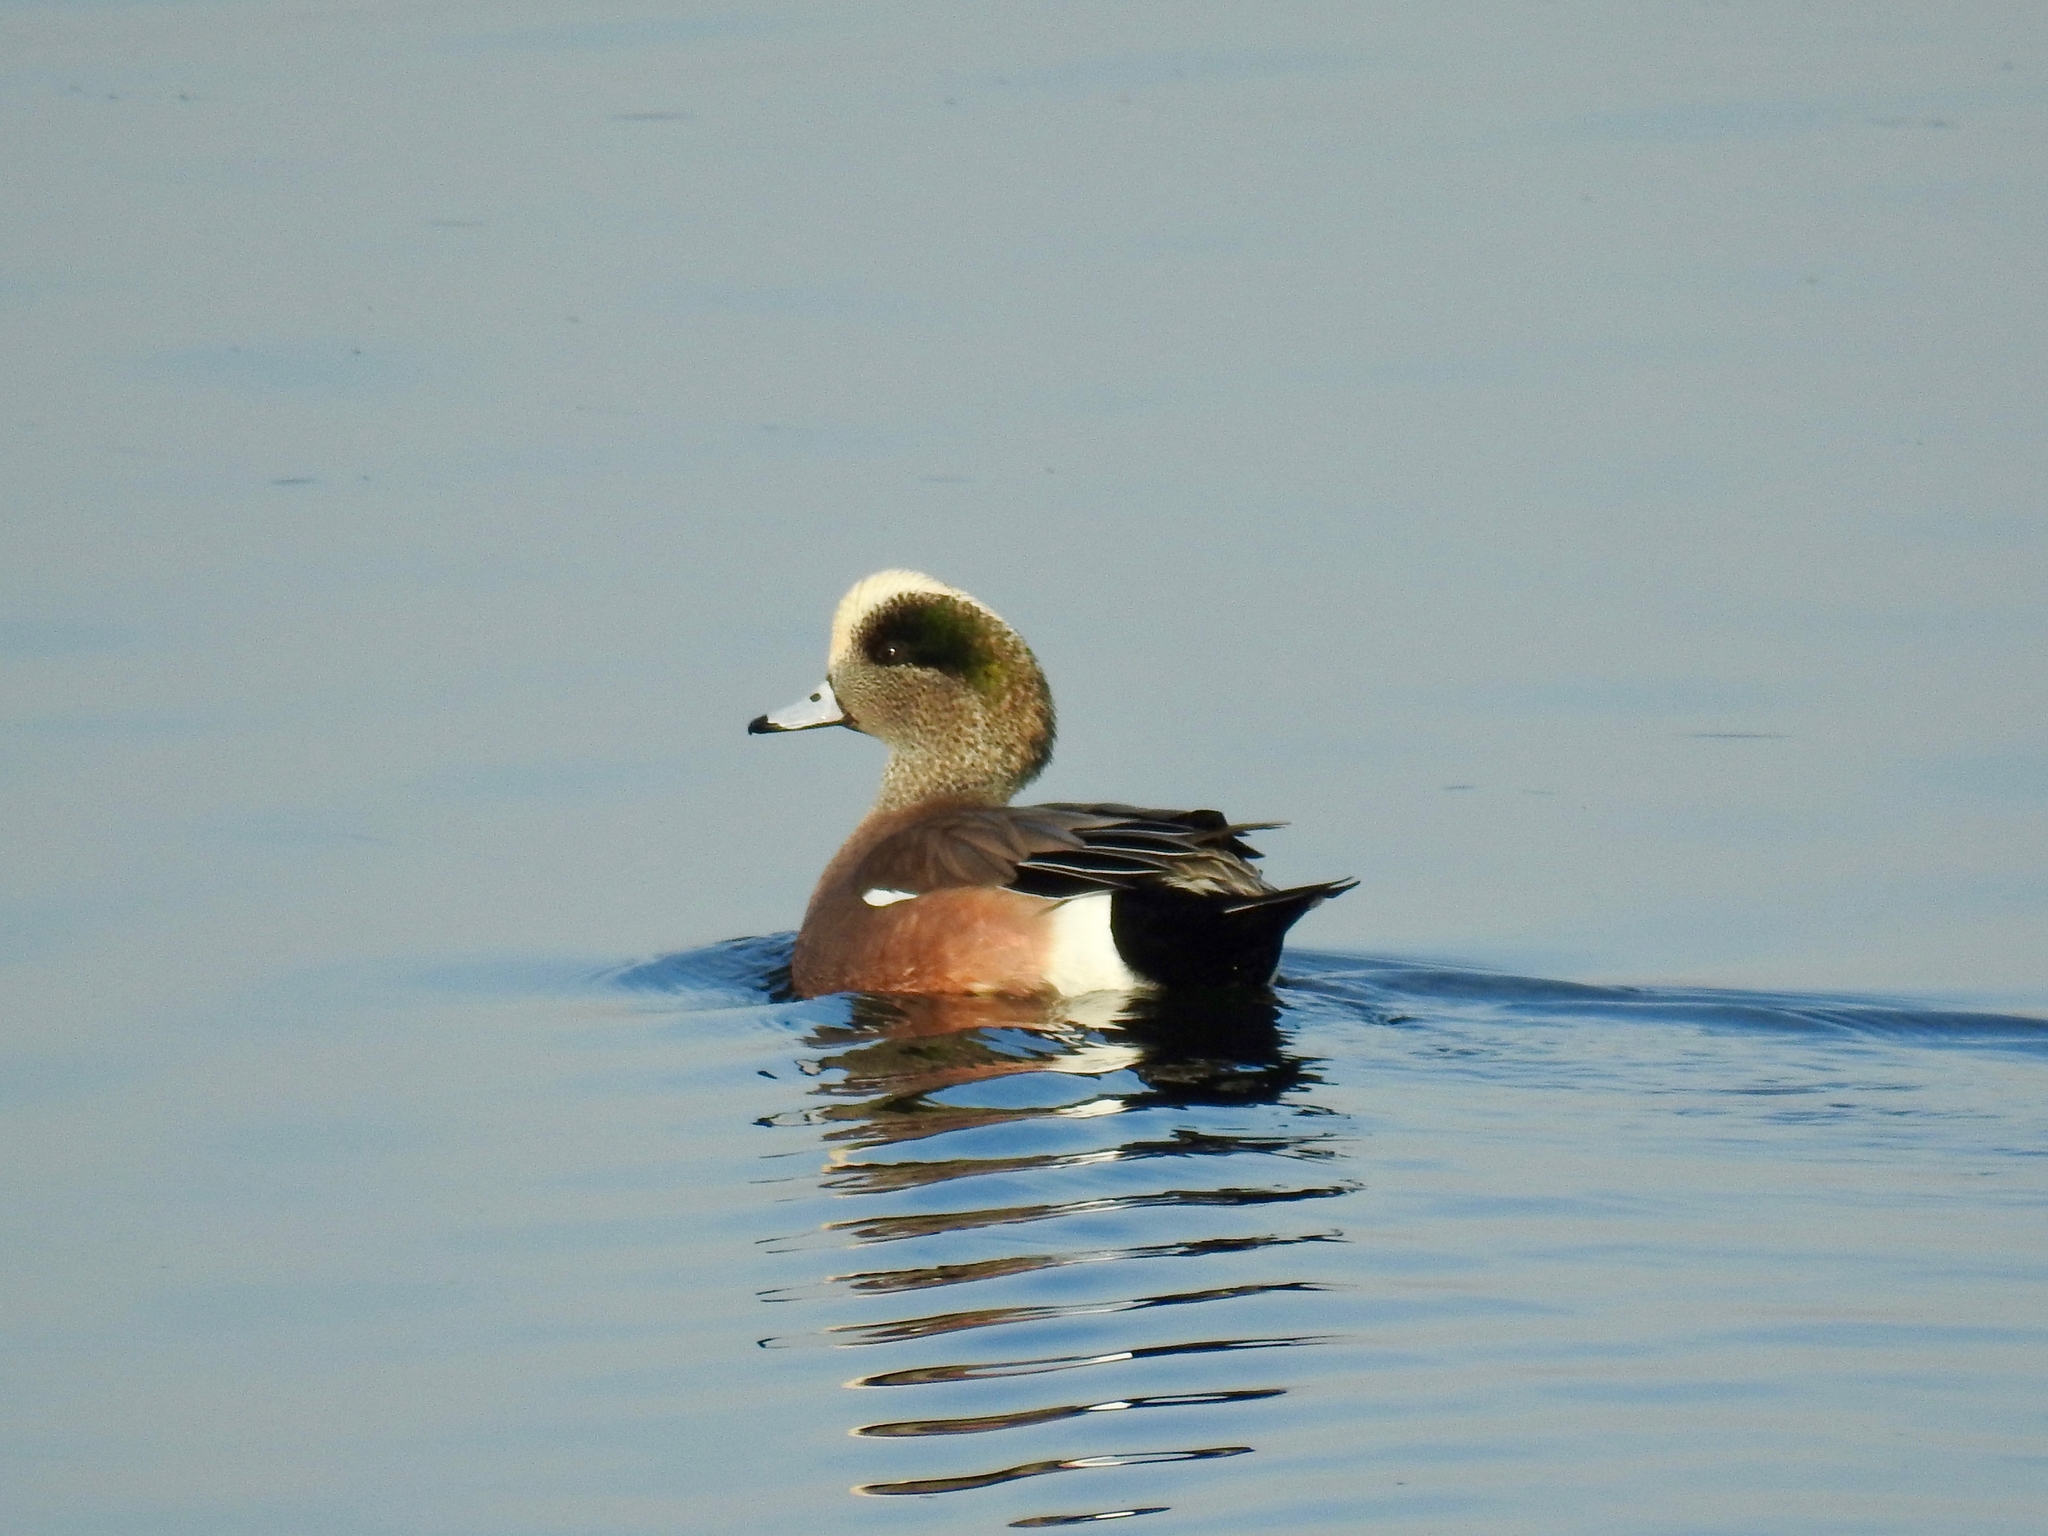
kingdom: Animalia
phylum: Chordata
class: Aves
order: Anseriformes
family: Anatidae
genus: Mareca
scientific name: Mareca americana
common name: American wigeon
